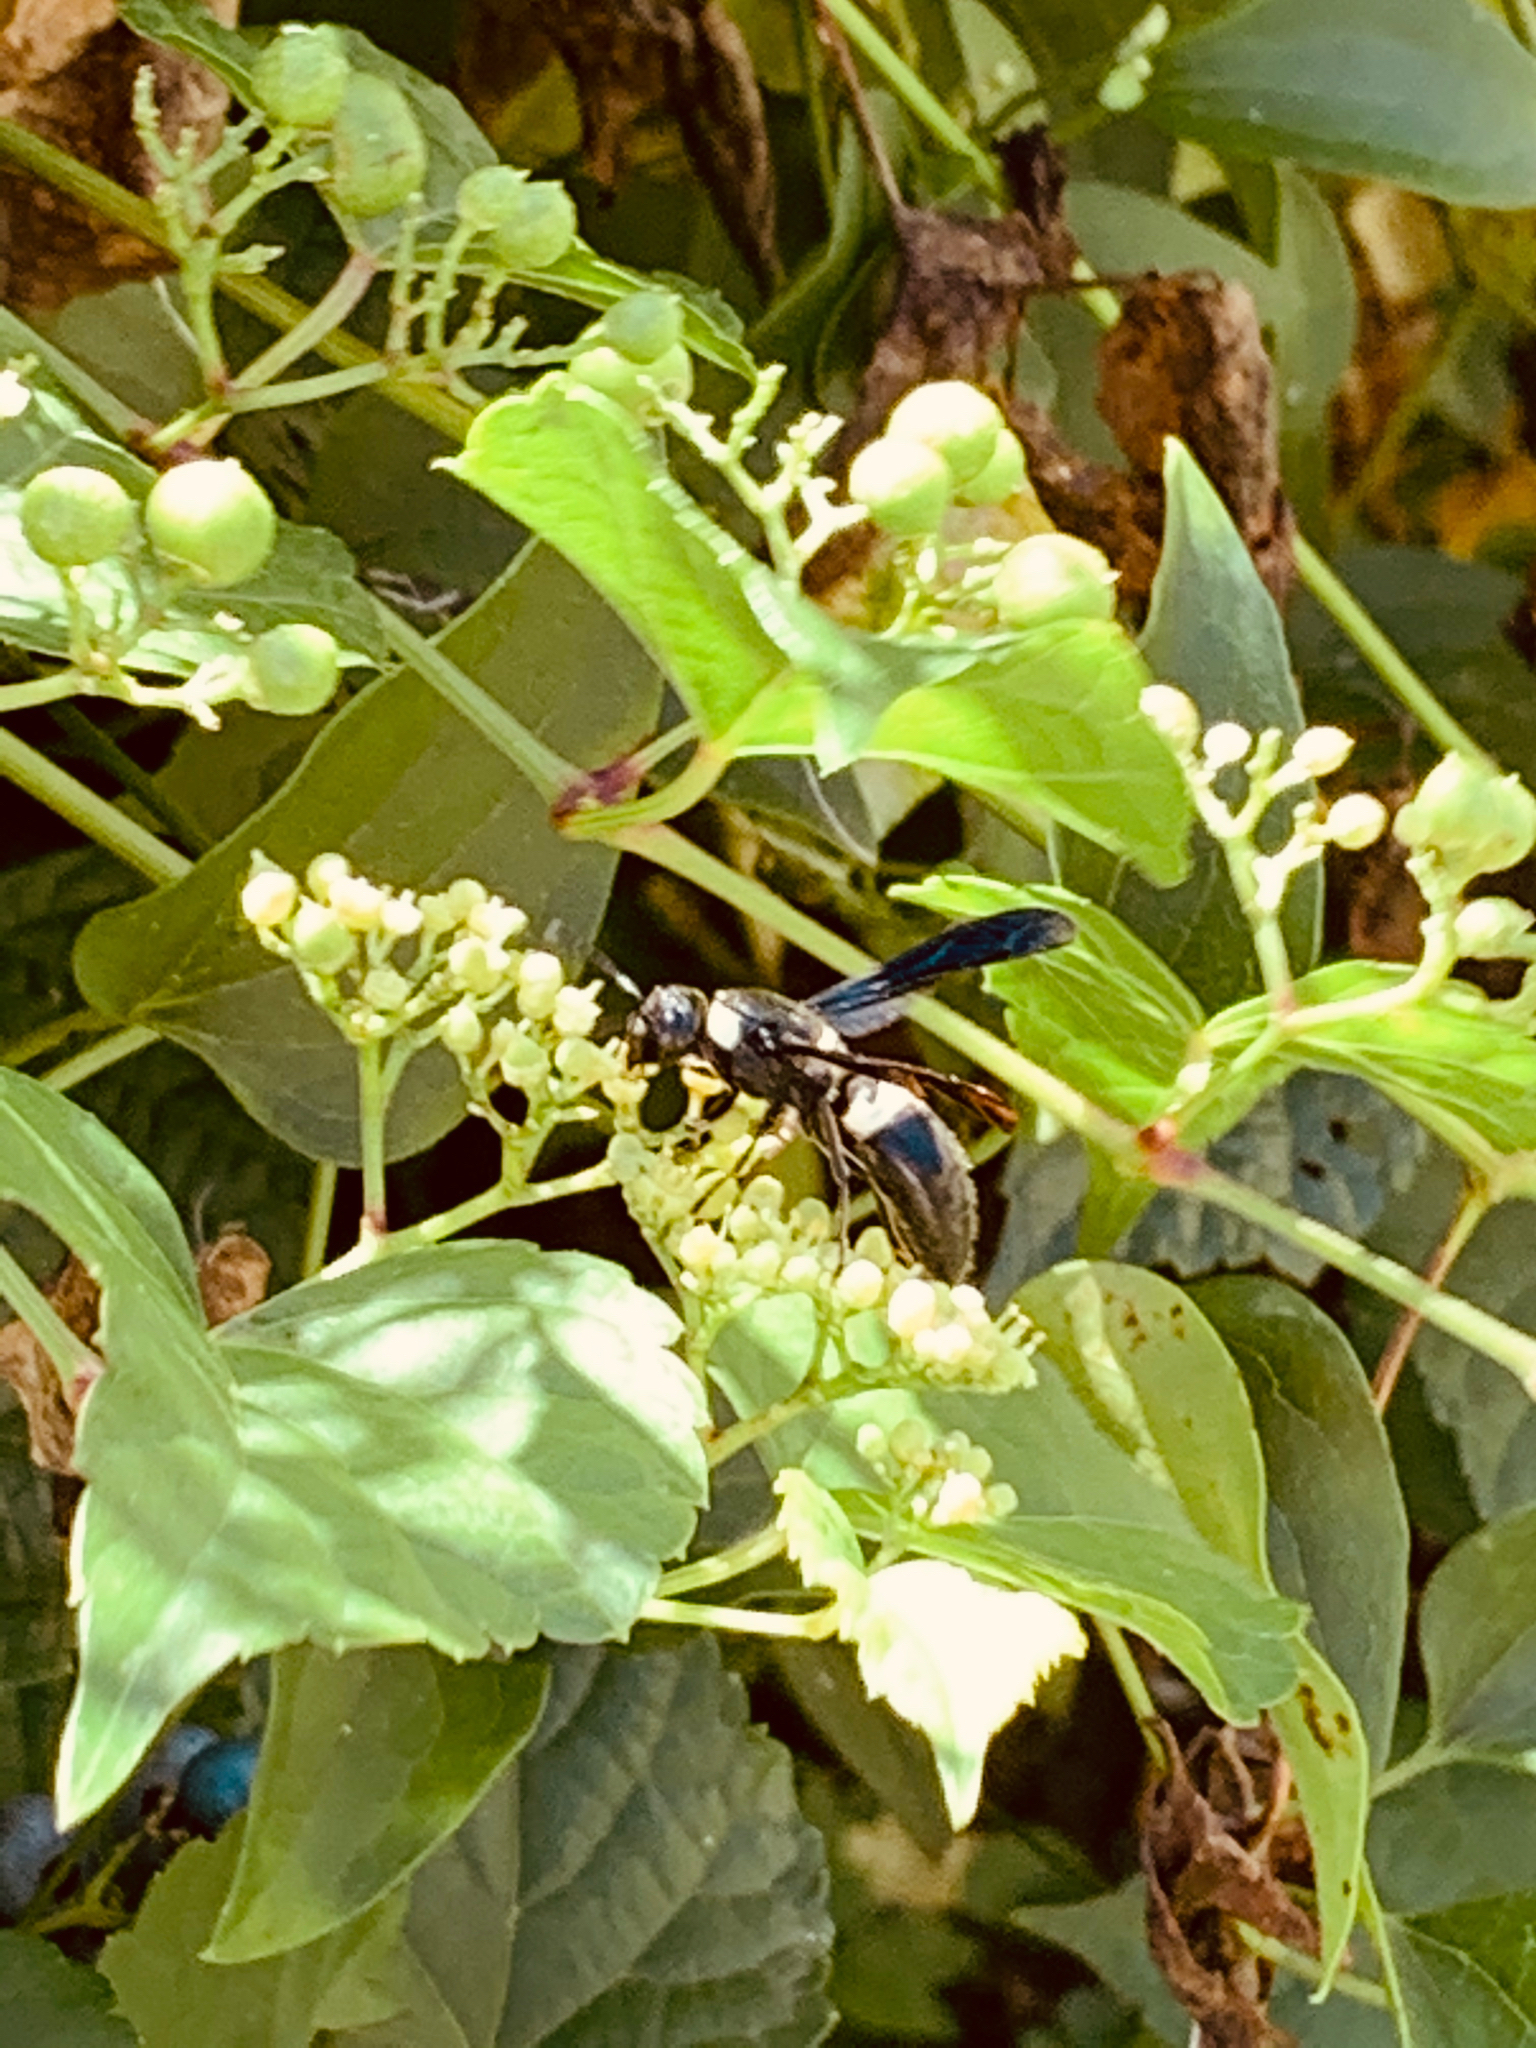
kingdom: Animalia
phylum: Arthropoda
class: Insecta
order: Hymenoptera
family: Eumenidae
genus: Monobia
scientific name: Monobia quadridens
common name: Four-toothed mason wasp
